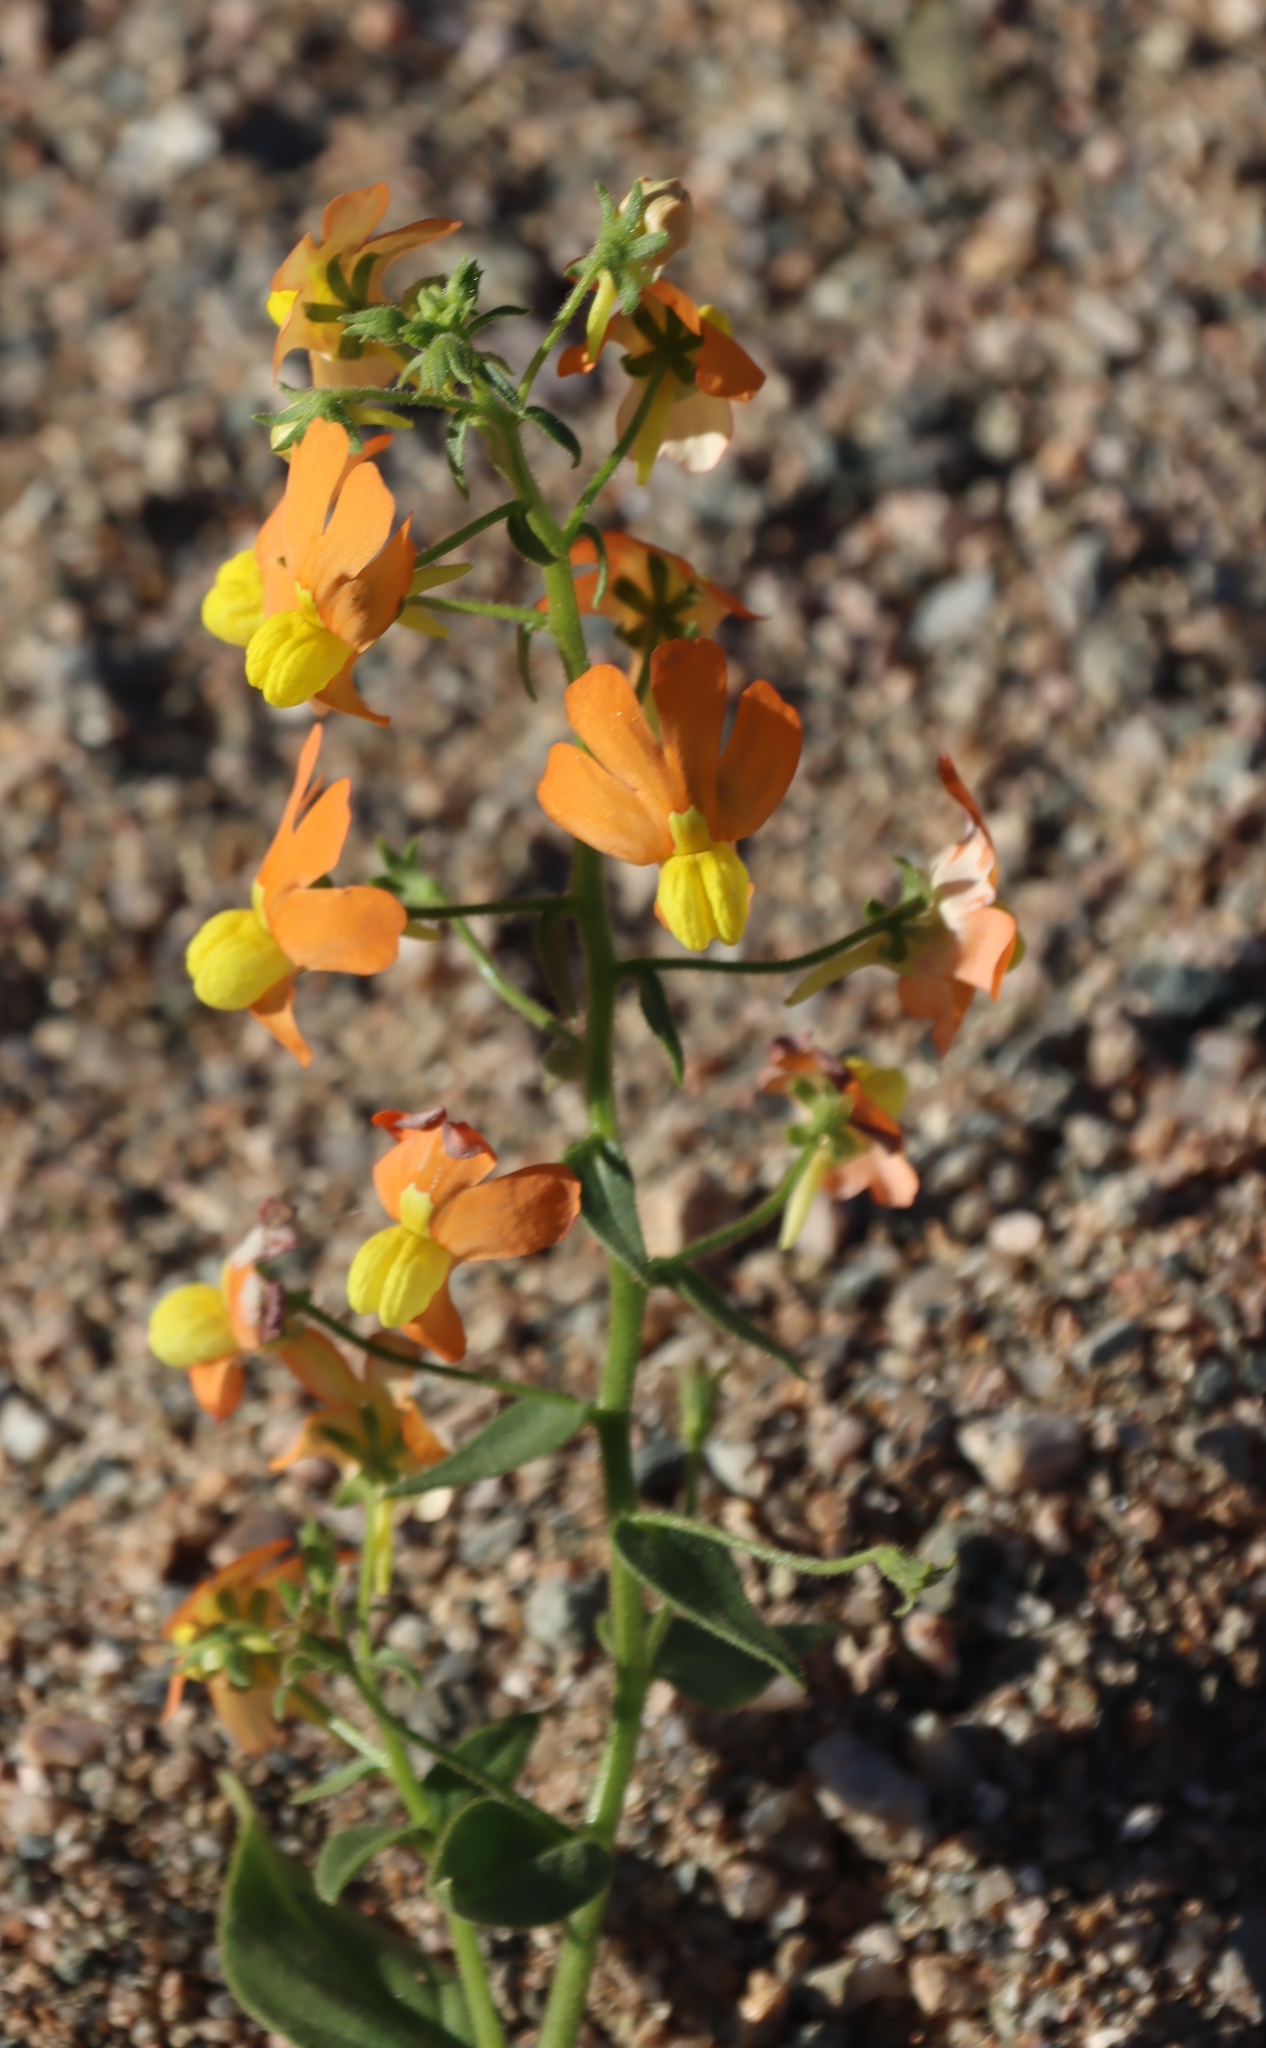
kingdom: Plantae
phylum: Tracheophyta
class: Magnoliopsida
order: Lamiales
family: Scrophulariaceae
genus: Nemesia
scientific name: Nemesia williamsonii
